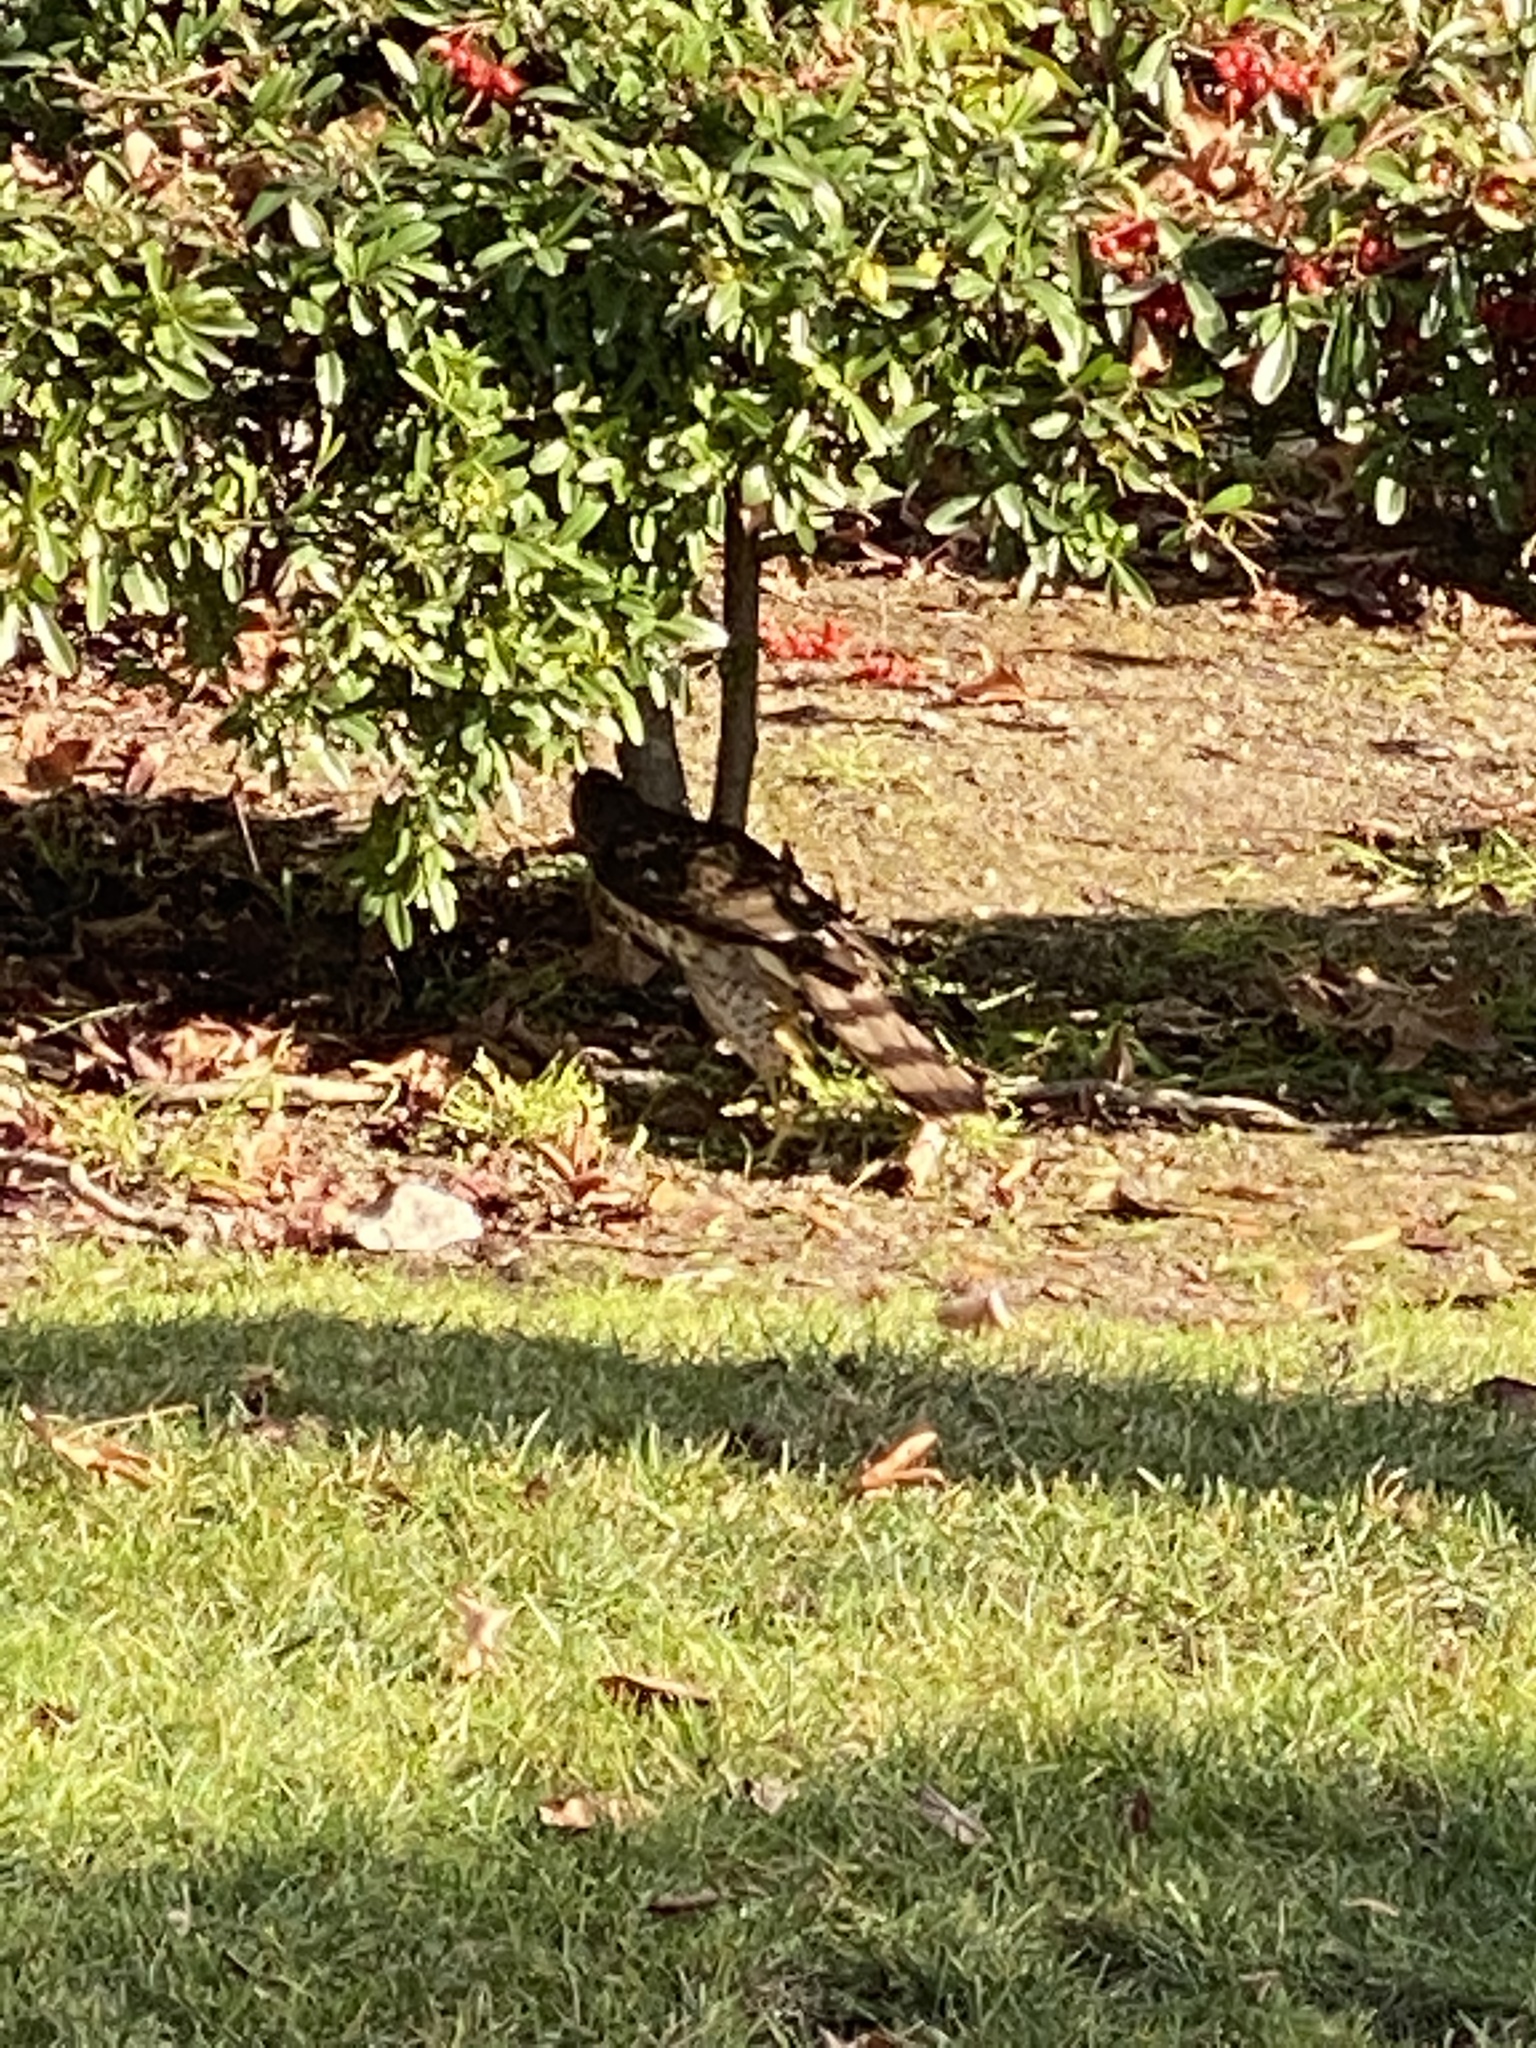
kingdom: Animalia
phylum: Chordata
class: Aves
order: Accipitriformes
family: Accipitridae
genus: Accipiter
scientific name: Accipiter cooperii
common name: Cooper's hawk
